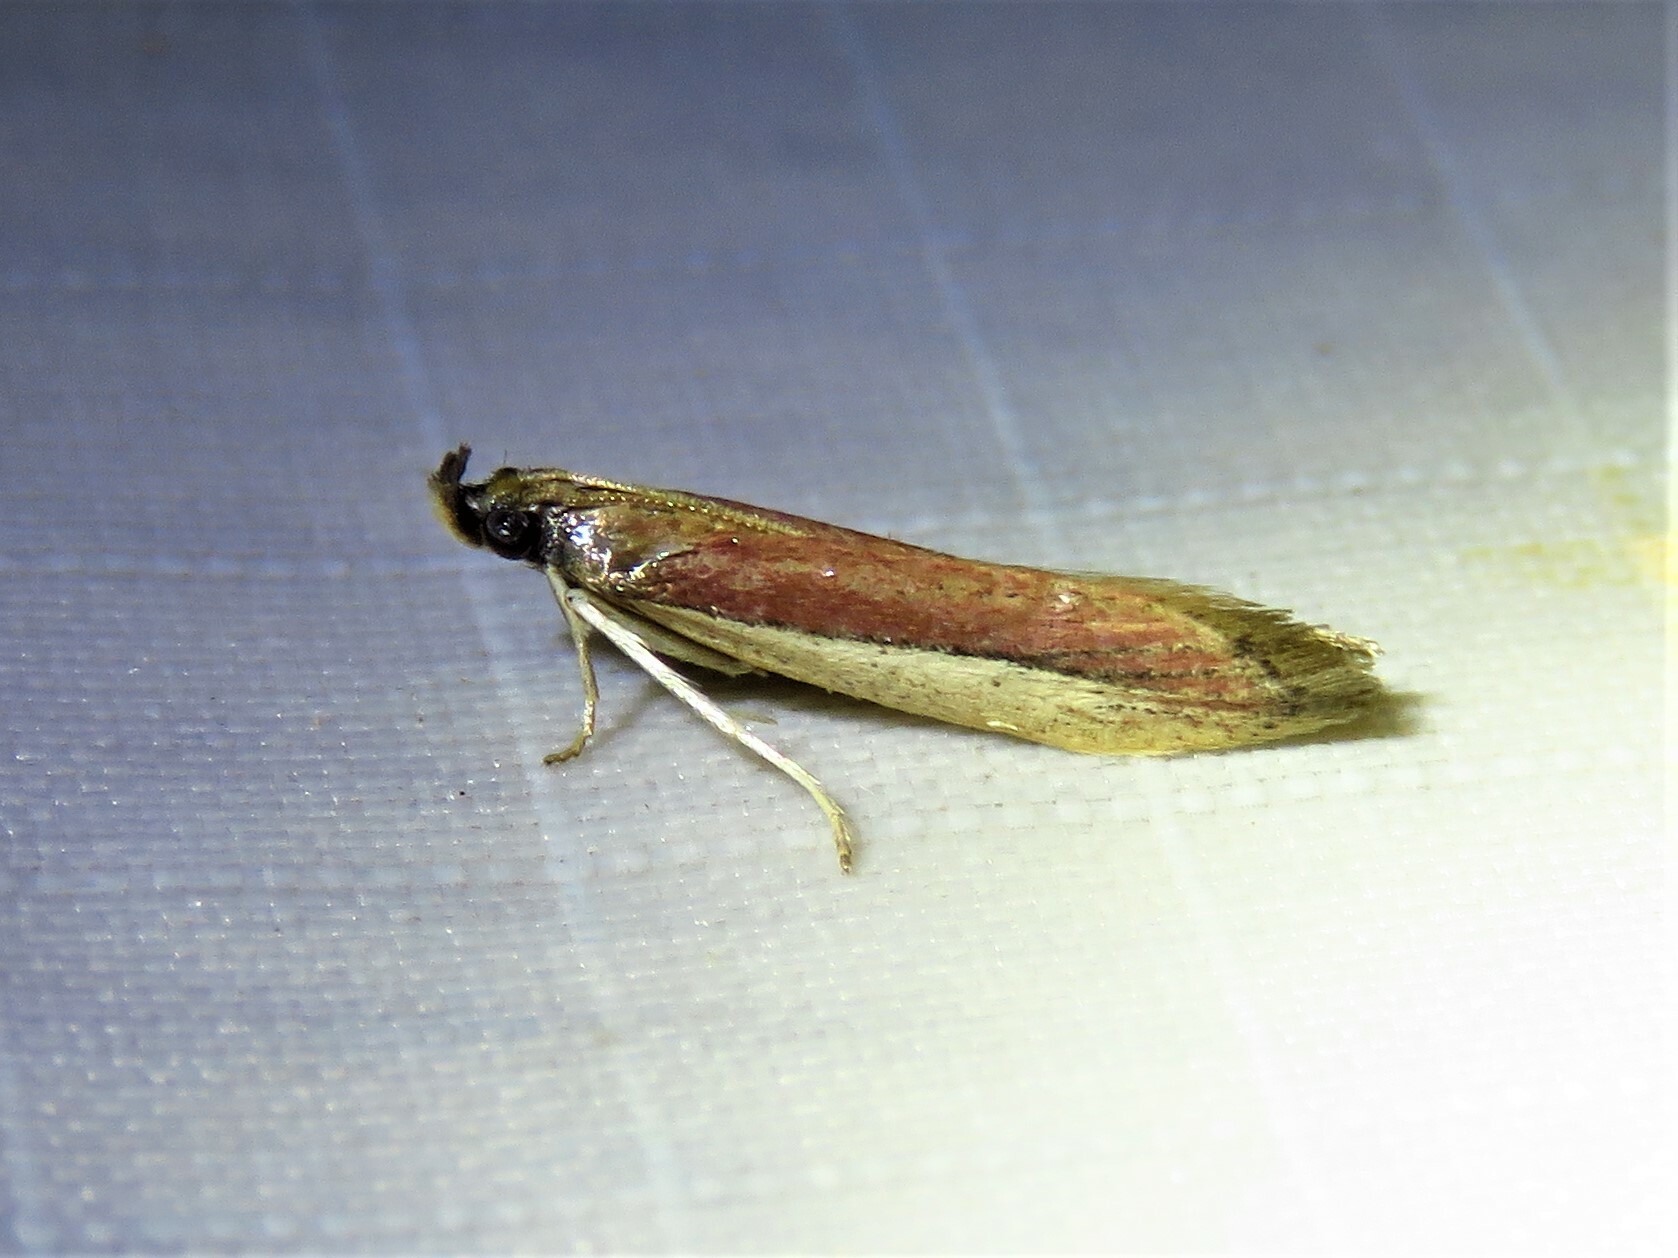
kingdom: Animalia
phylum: Arthropoda
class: Insecta
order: Lepidoptera
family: Pyralidae
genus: Tampa
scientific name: Tampa dimediatella
